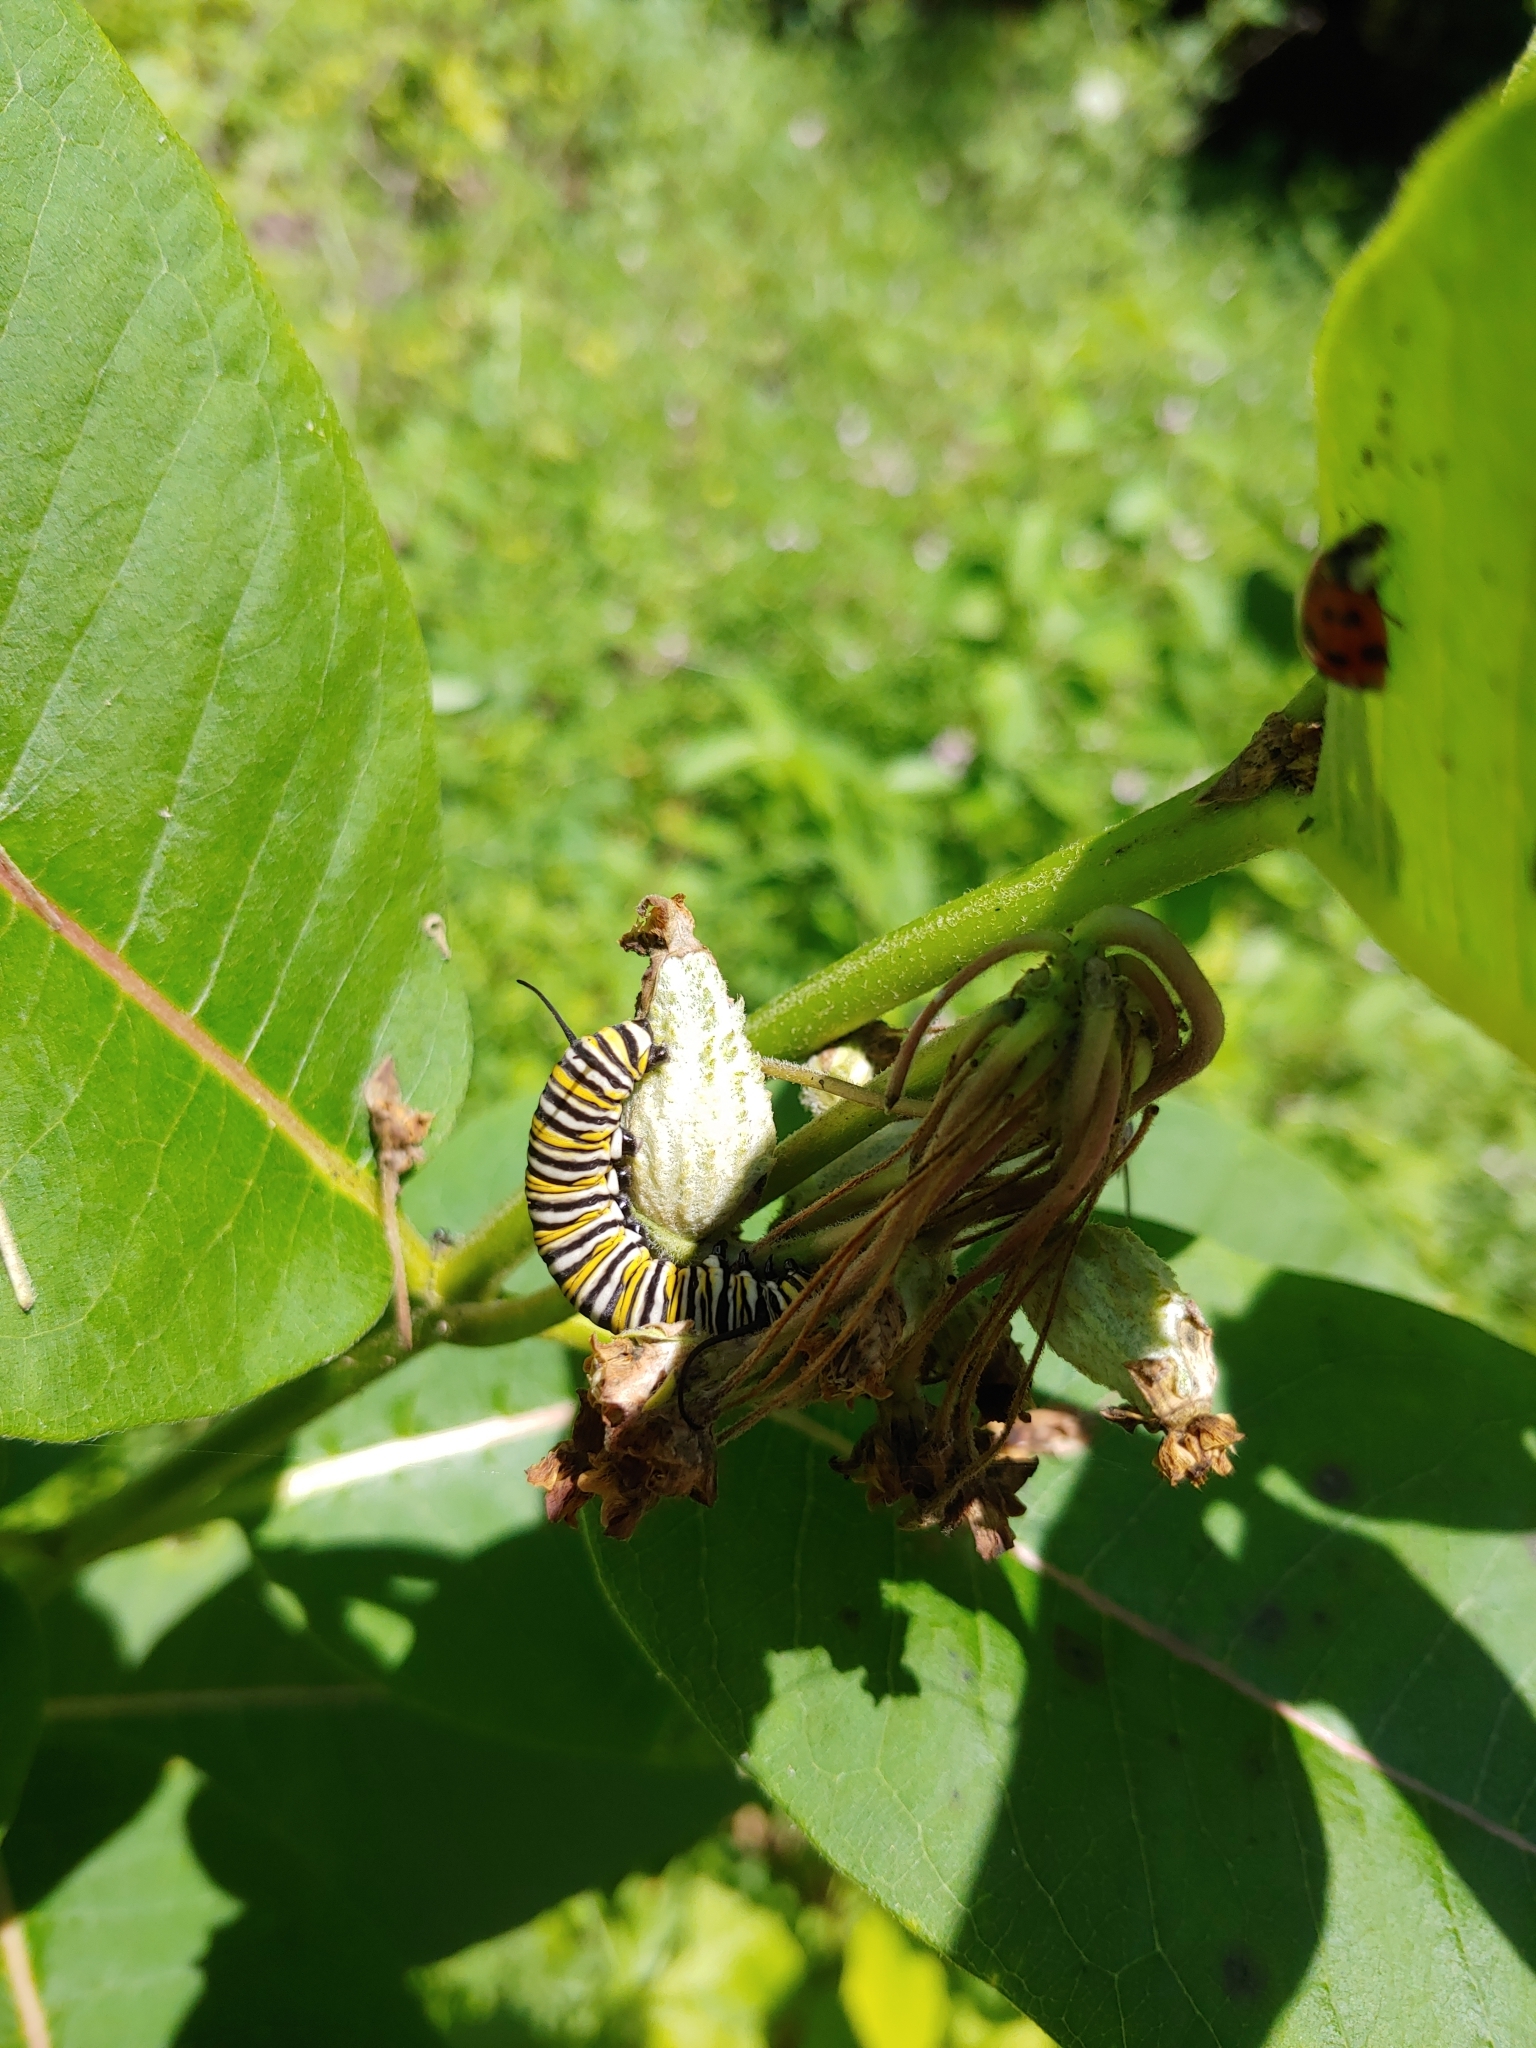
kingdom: Animalia
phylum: Arthropoda
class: Insecta
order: Lepidoptera
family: Nymphalidae
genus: Danaus
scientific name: Danaus plexippus
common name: Monarch
